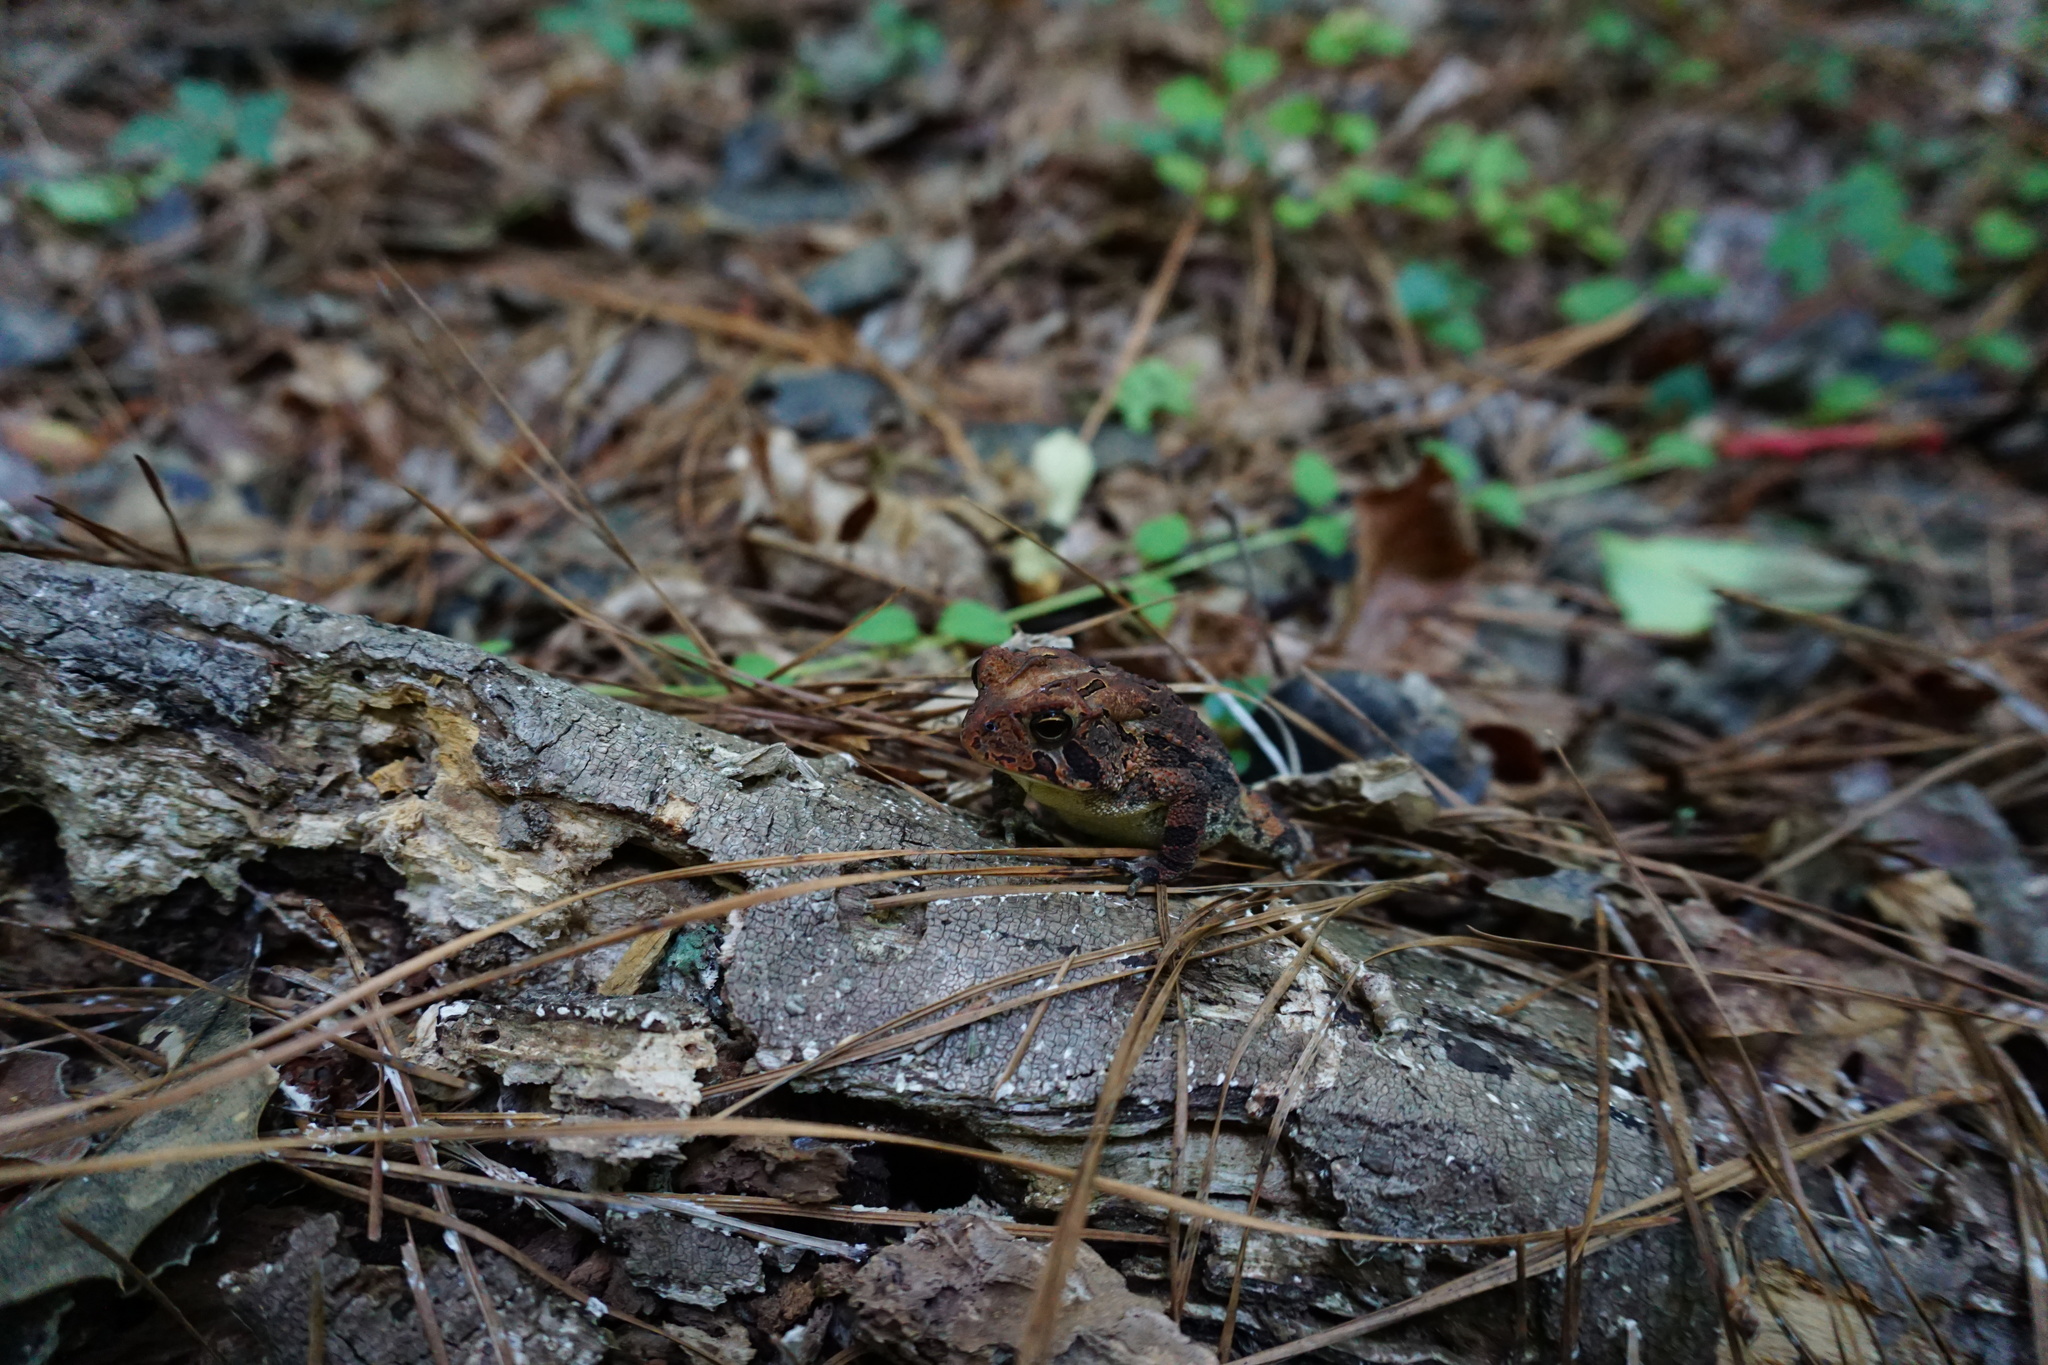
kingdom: Animalia
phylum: Chordata
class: Amphibia
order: Anura
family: Bufonidae
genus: Anaxyrus
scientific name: Anaxyrus terrestris
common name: Southern toad
